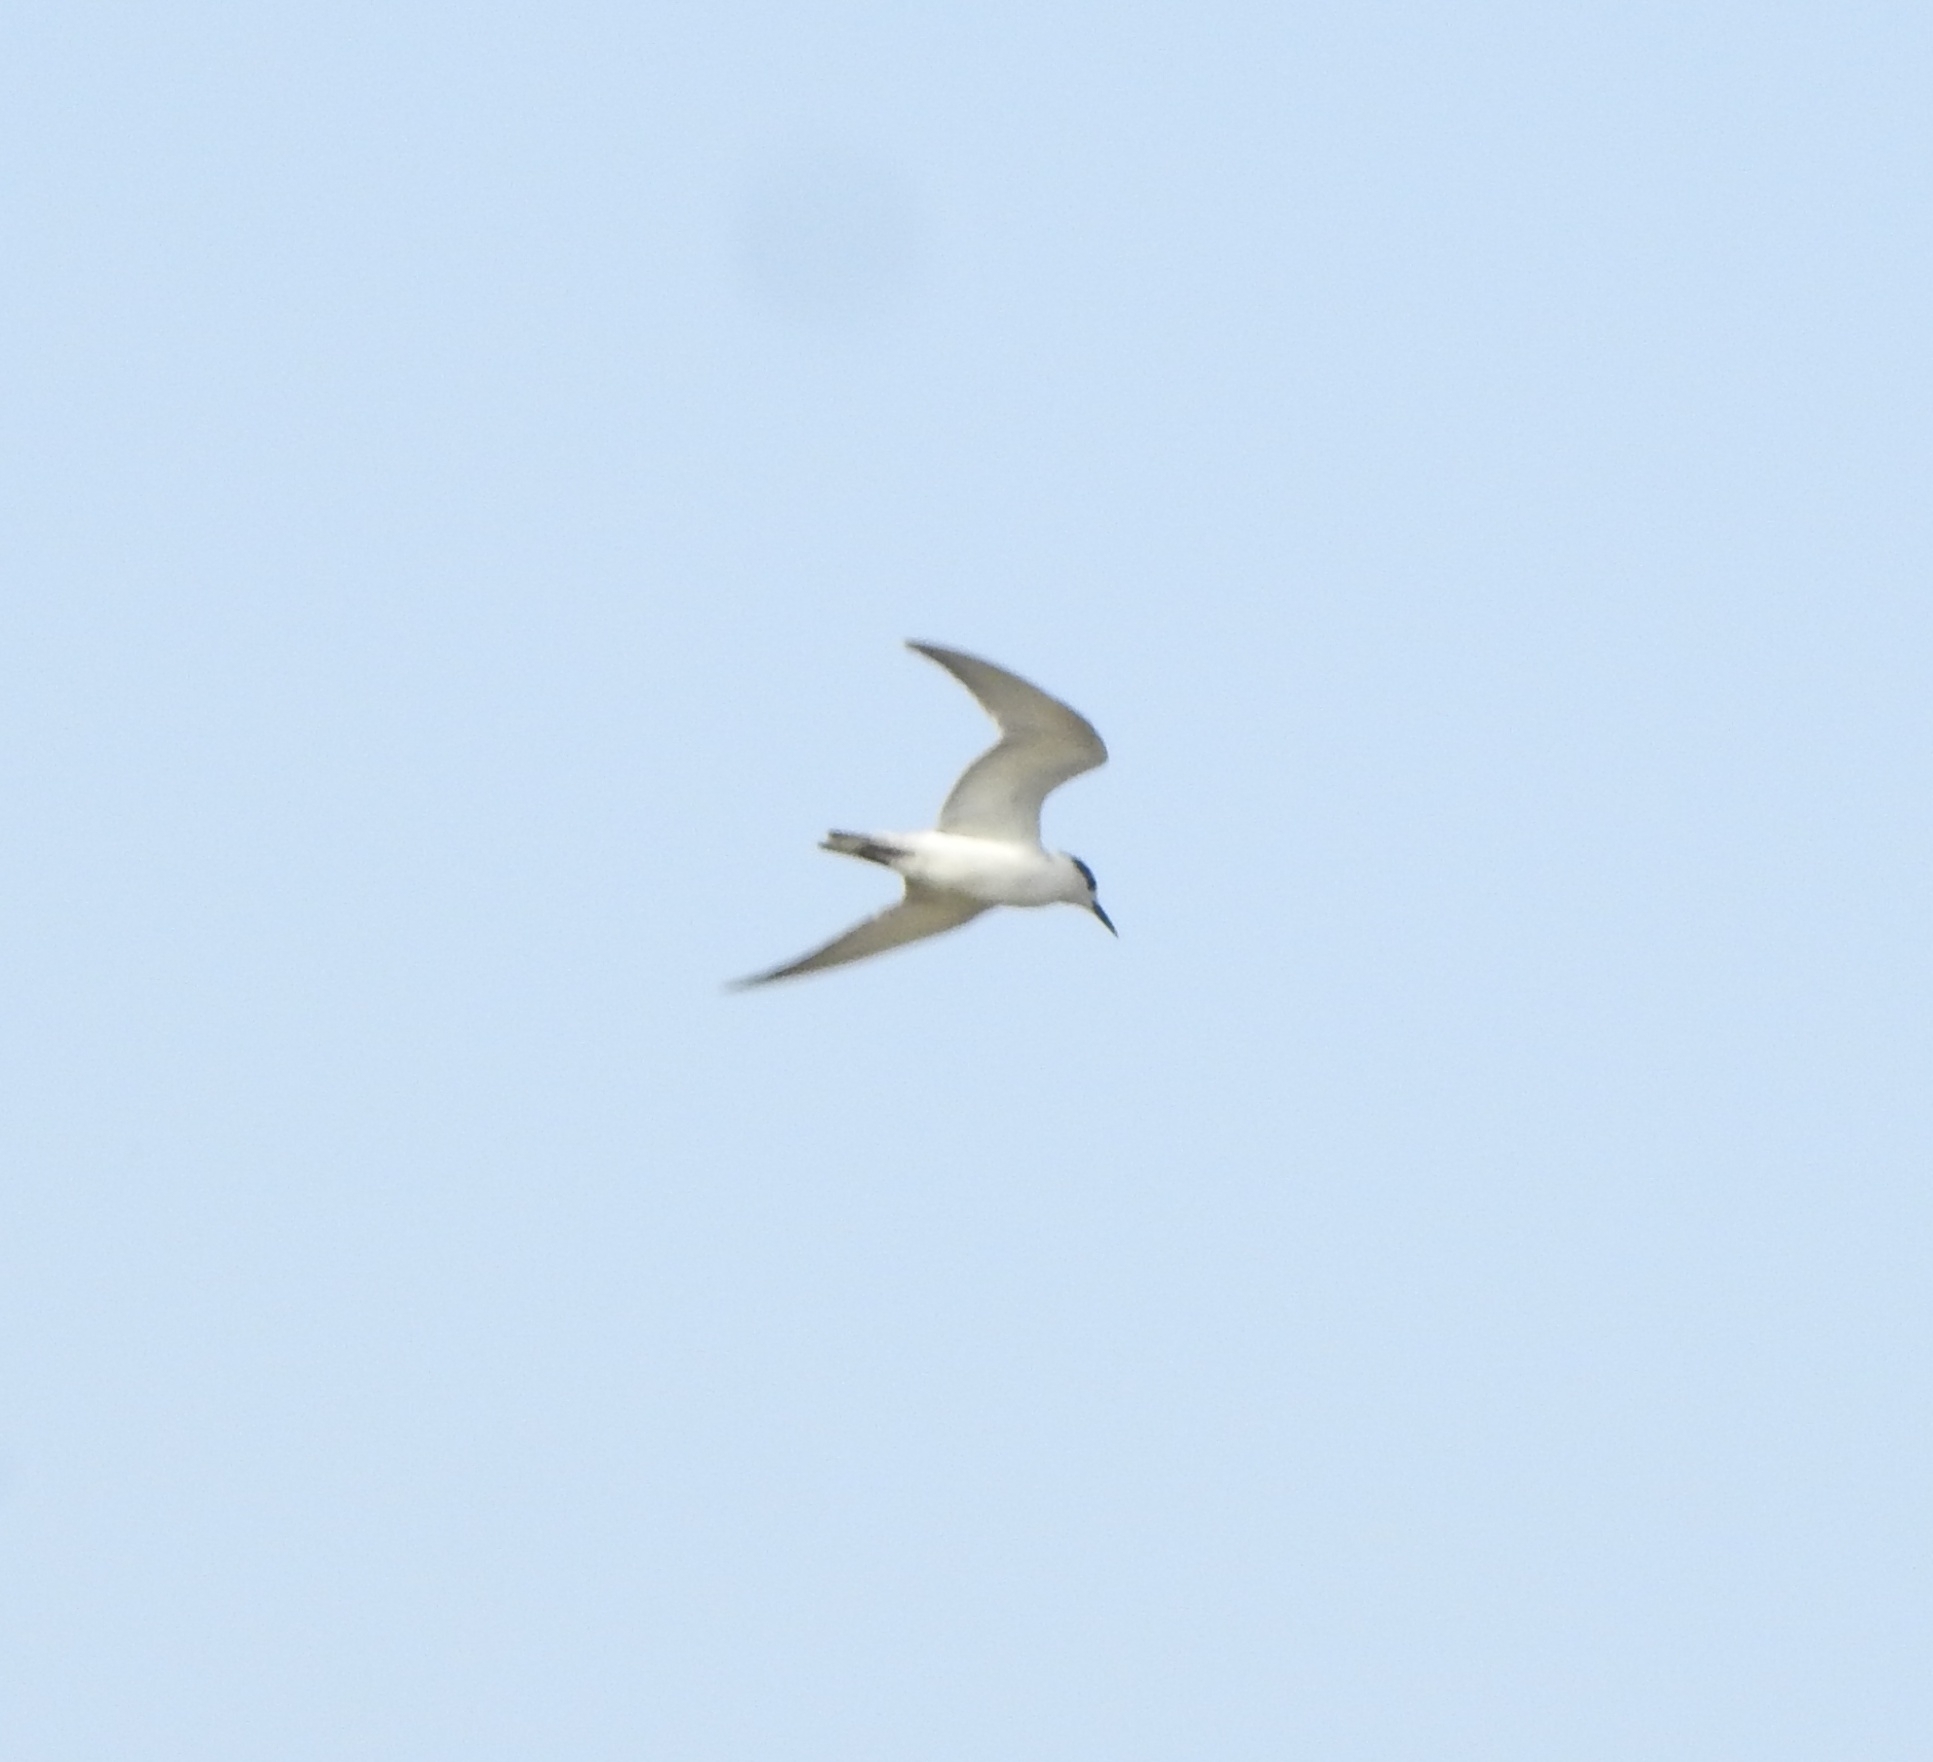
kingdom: Animalia
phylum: Chordata
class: Aves
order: Charadriiformes
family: Laridae
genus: Chlidonias
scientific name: Chlidonias hybrida
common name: Whiskered tern
